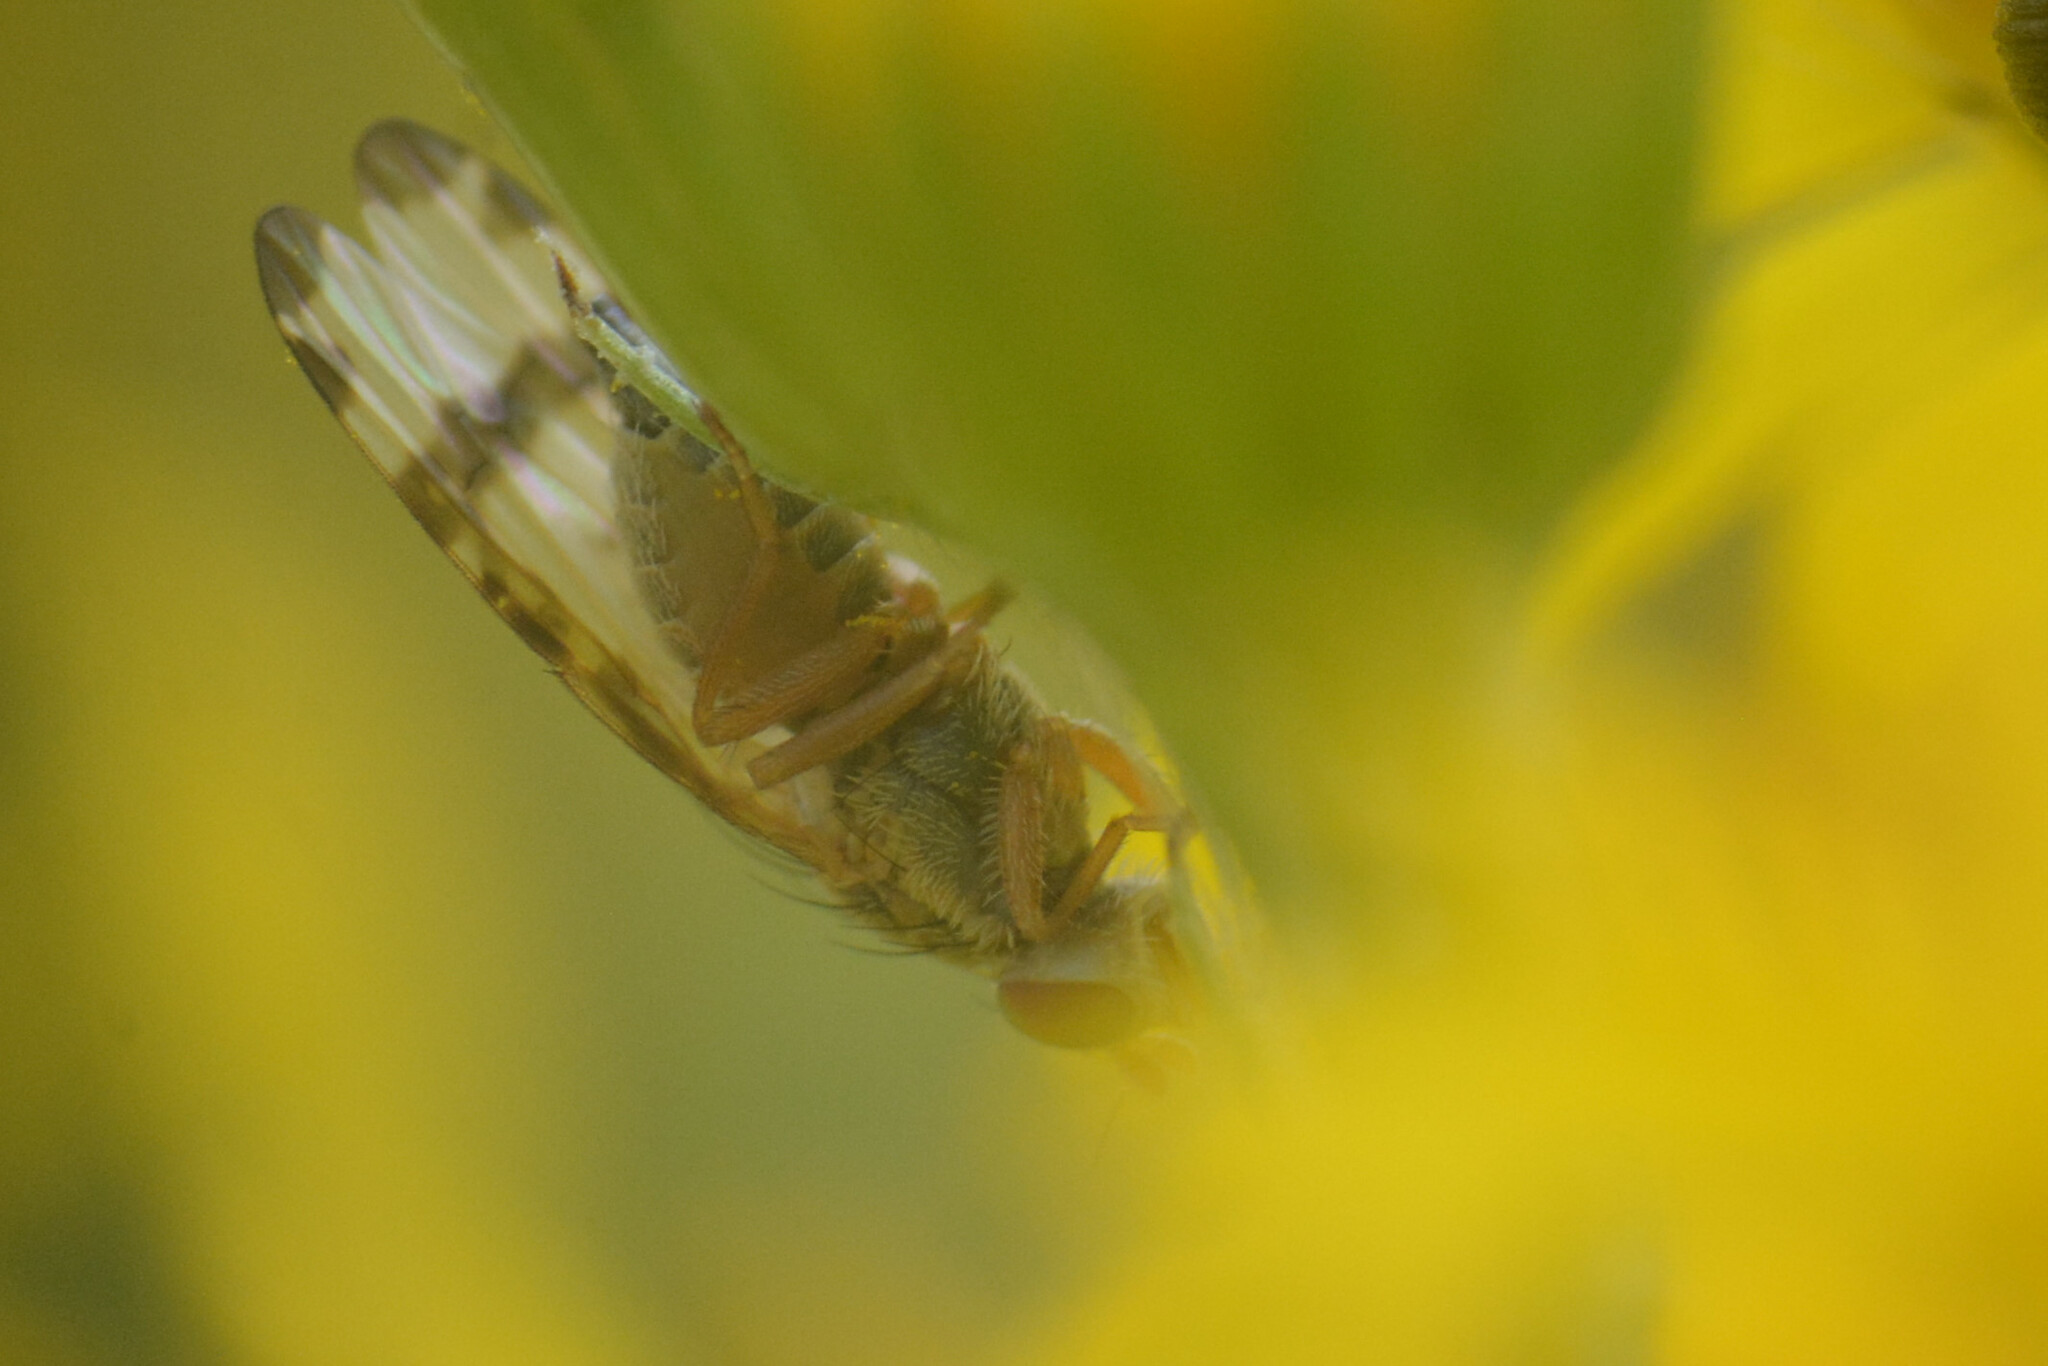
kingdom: Animalia
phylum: Arthropoda
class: Insecta
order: Diptera
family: Tephritidae
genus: Sphenella
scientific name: Sphenella marginata
